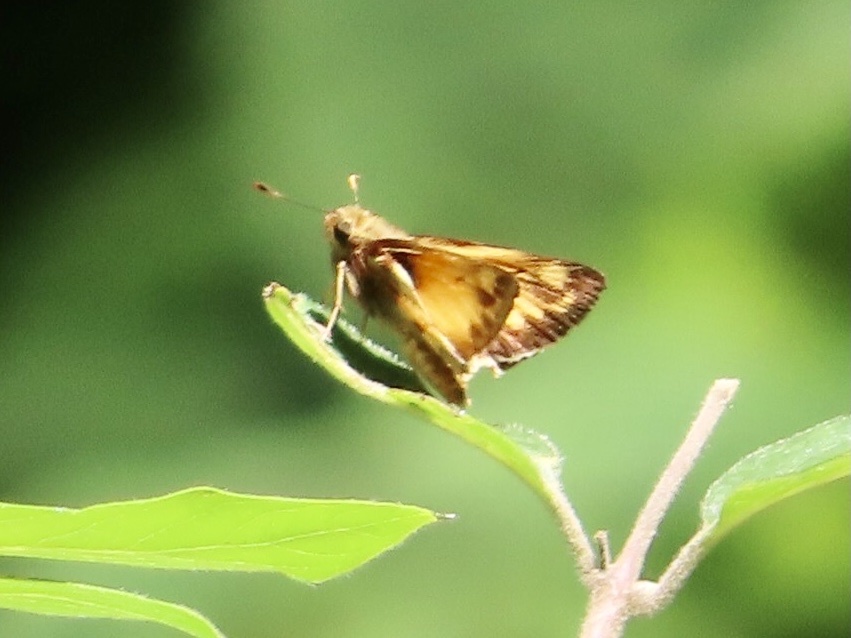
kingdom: Animalia
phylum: Arthropoda
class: Insecta
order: Lepidoptera
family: Hesperiidae
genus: Lon
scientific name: Lon zabulon
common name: Zabulon skipper
